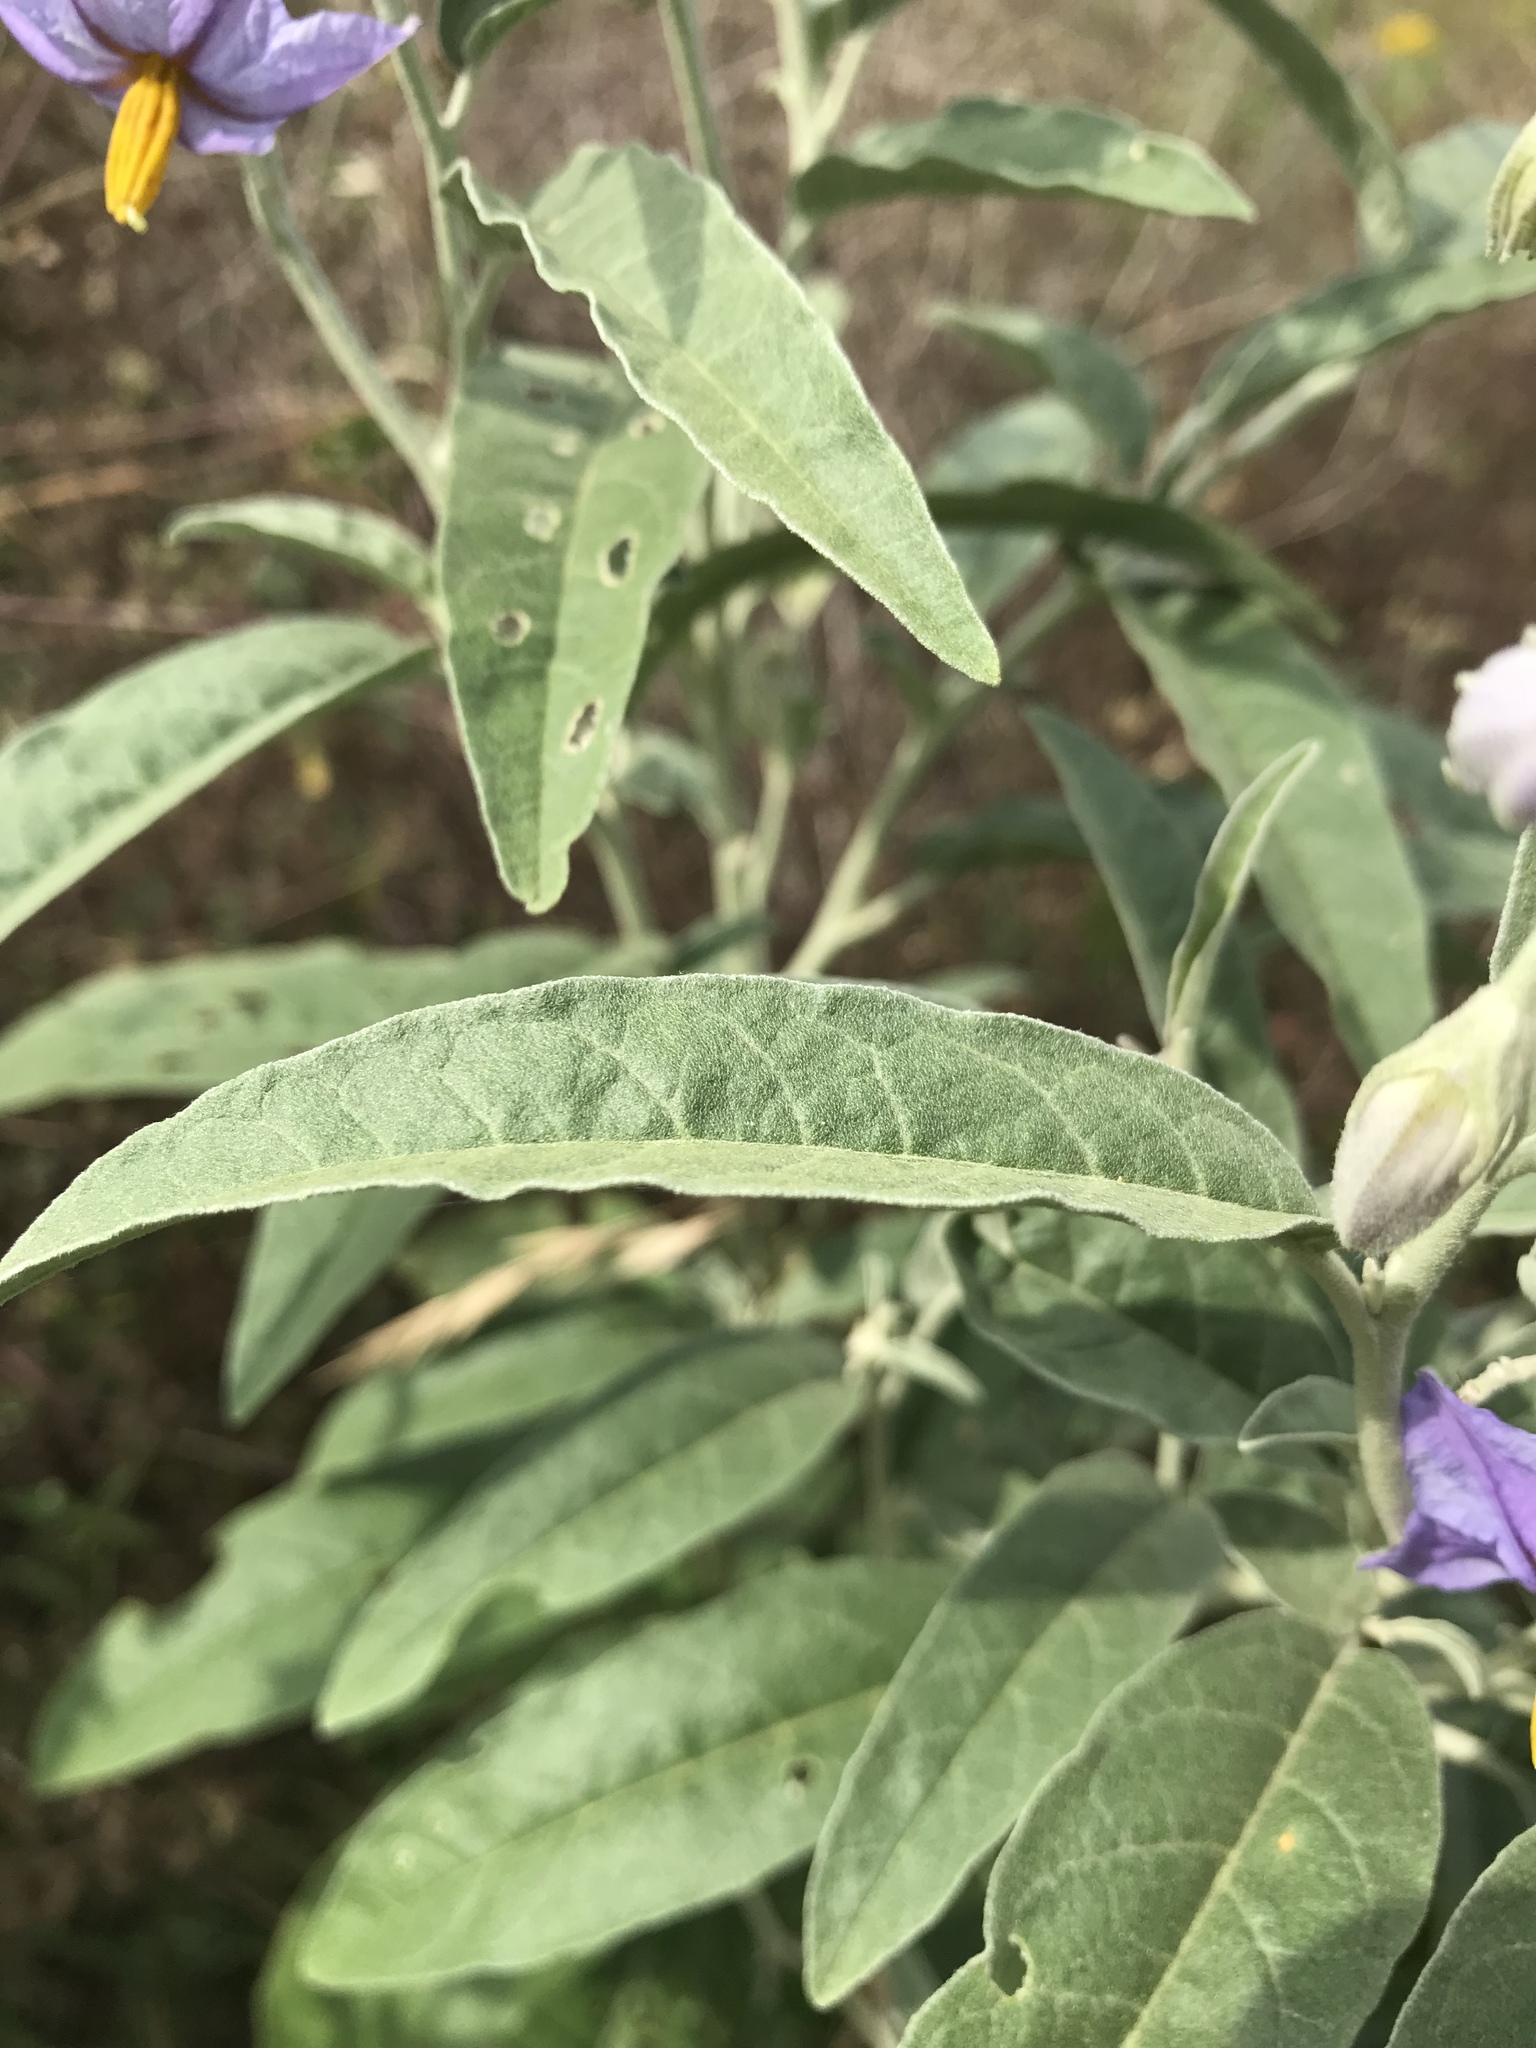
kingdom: Plantae
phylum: Tracheophyta
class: Magnoliopsida
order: Solanales
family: Solanaceae
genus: Solanum
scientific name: Solanum elaeagnifolium
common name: Silverleaf nightshade
